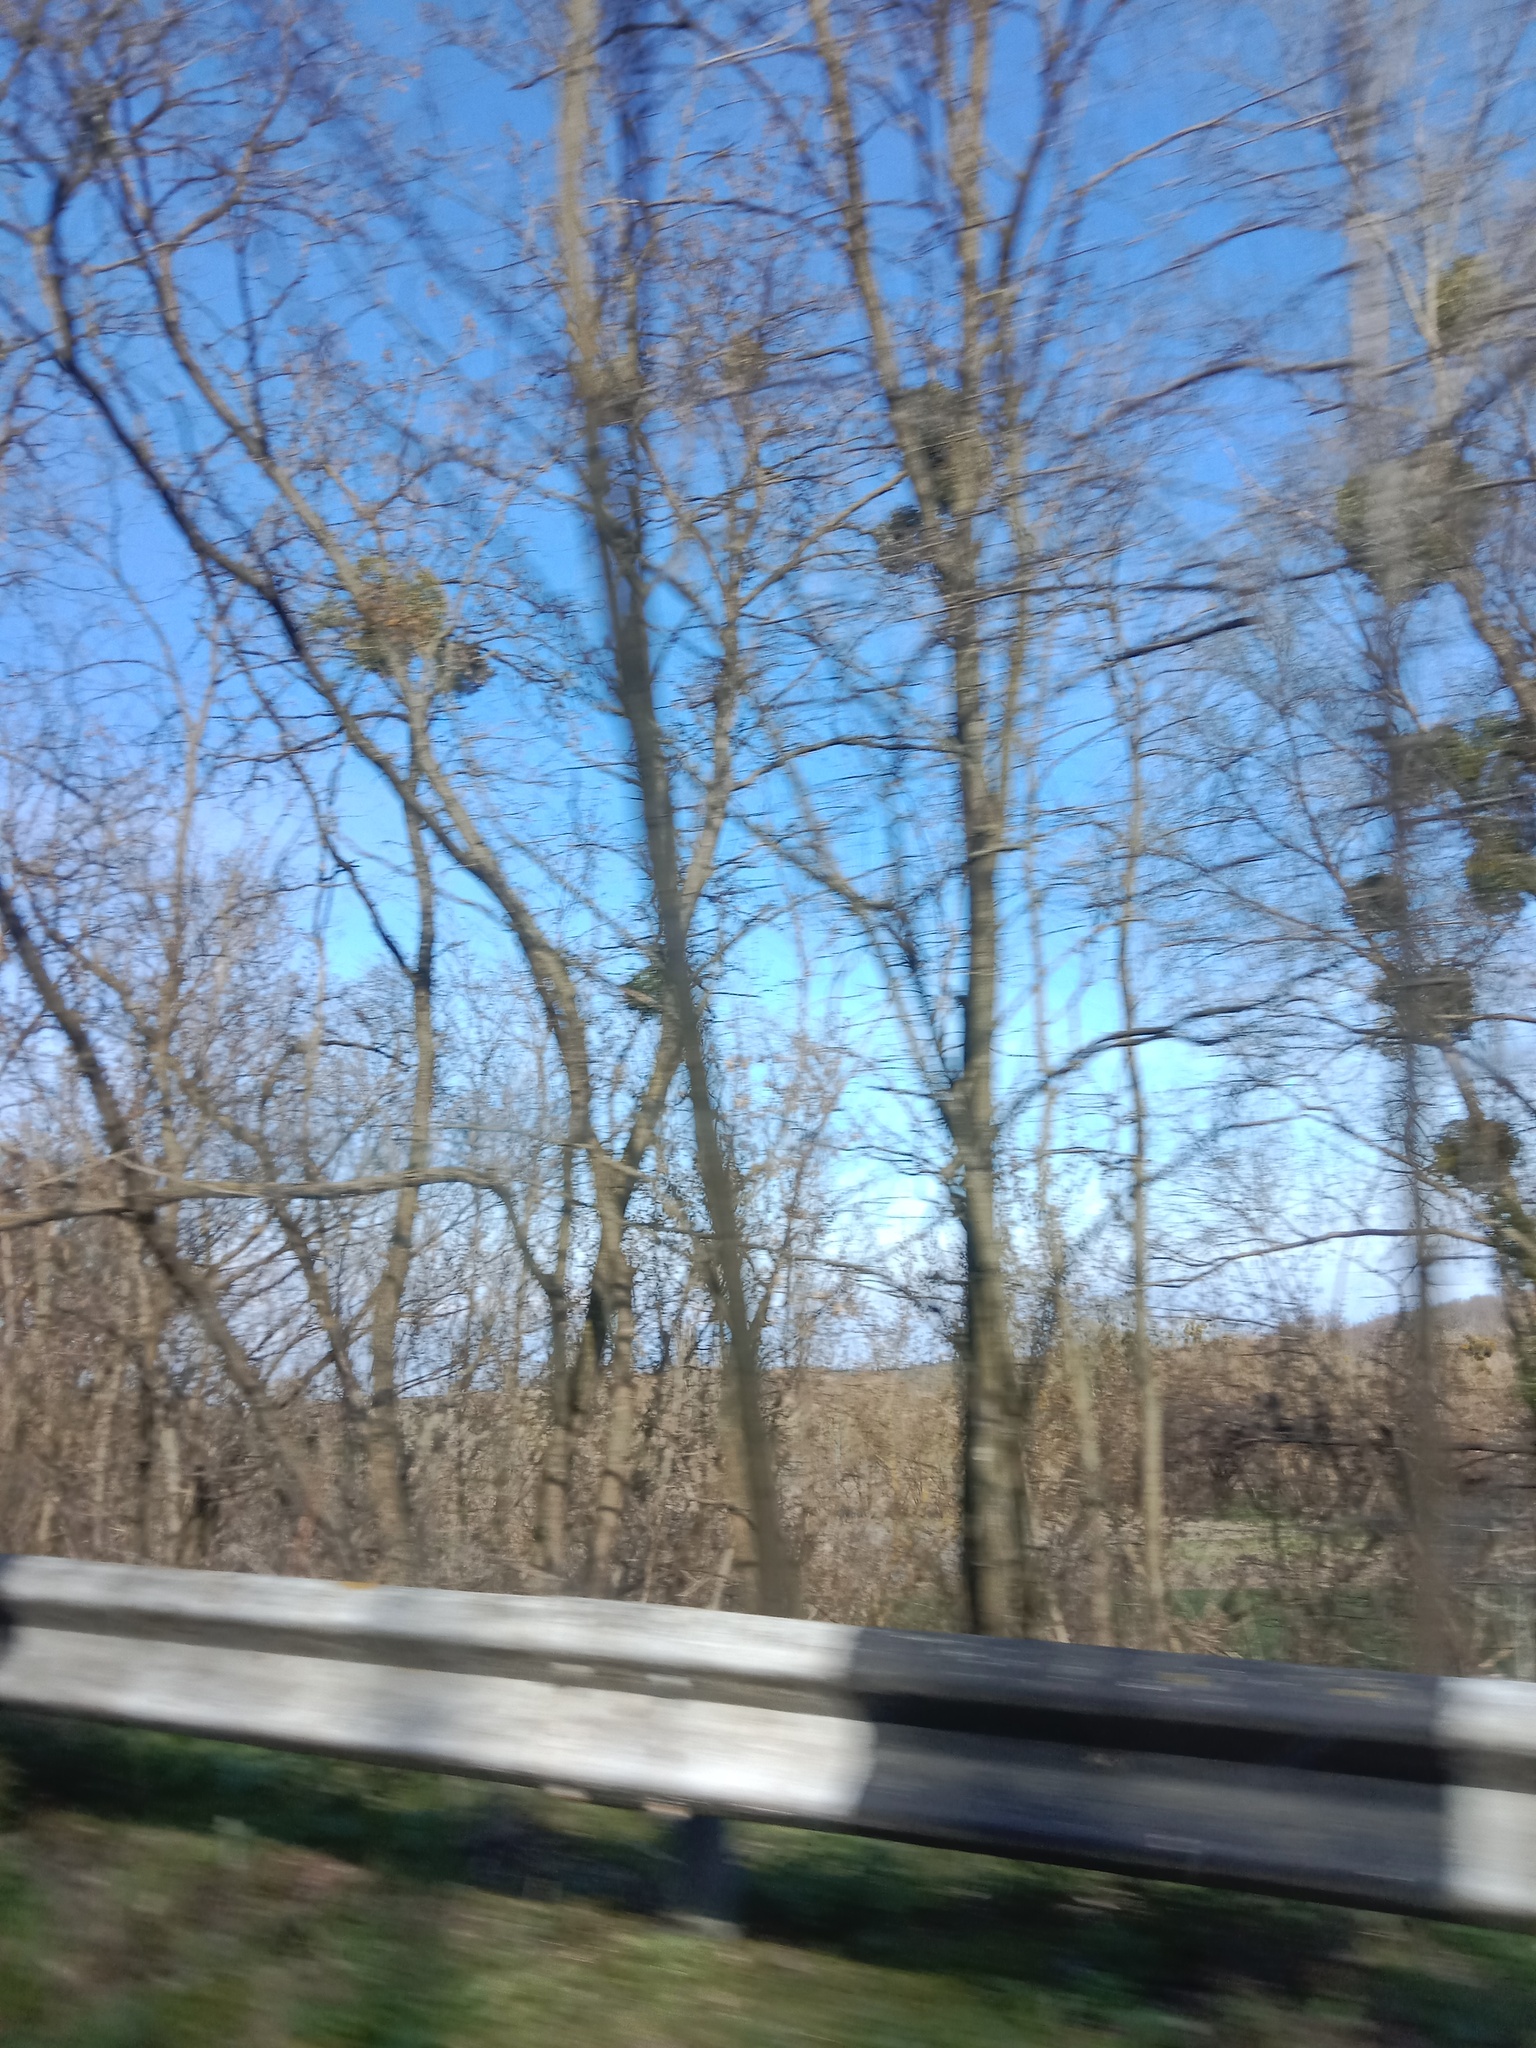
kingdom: Plantae
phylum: Tracheophyta
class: Magnoliopsida
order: Santalales
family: Viscaceae
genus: Viscum
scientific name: Viscum album
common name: Mistletoe
